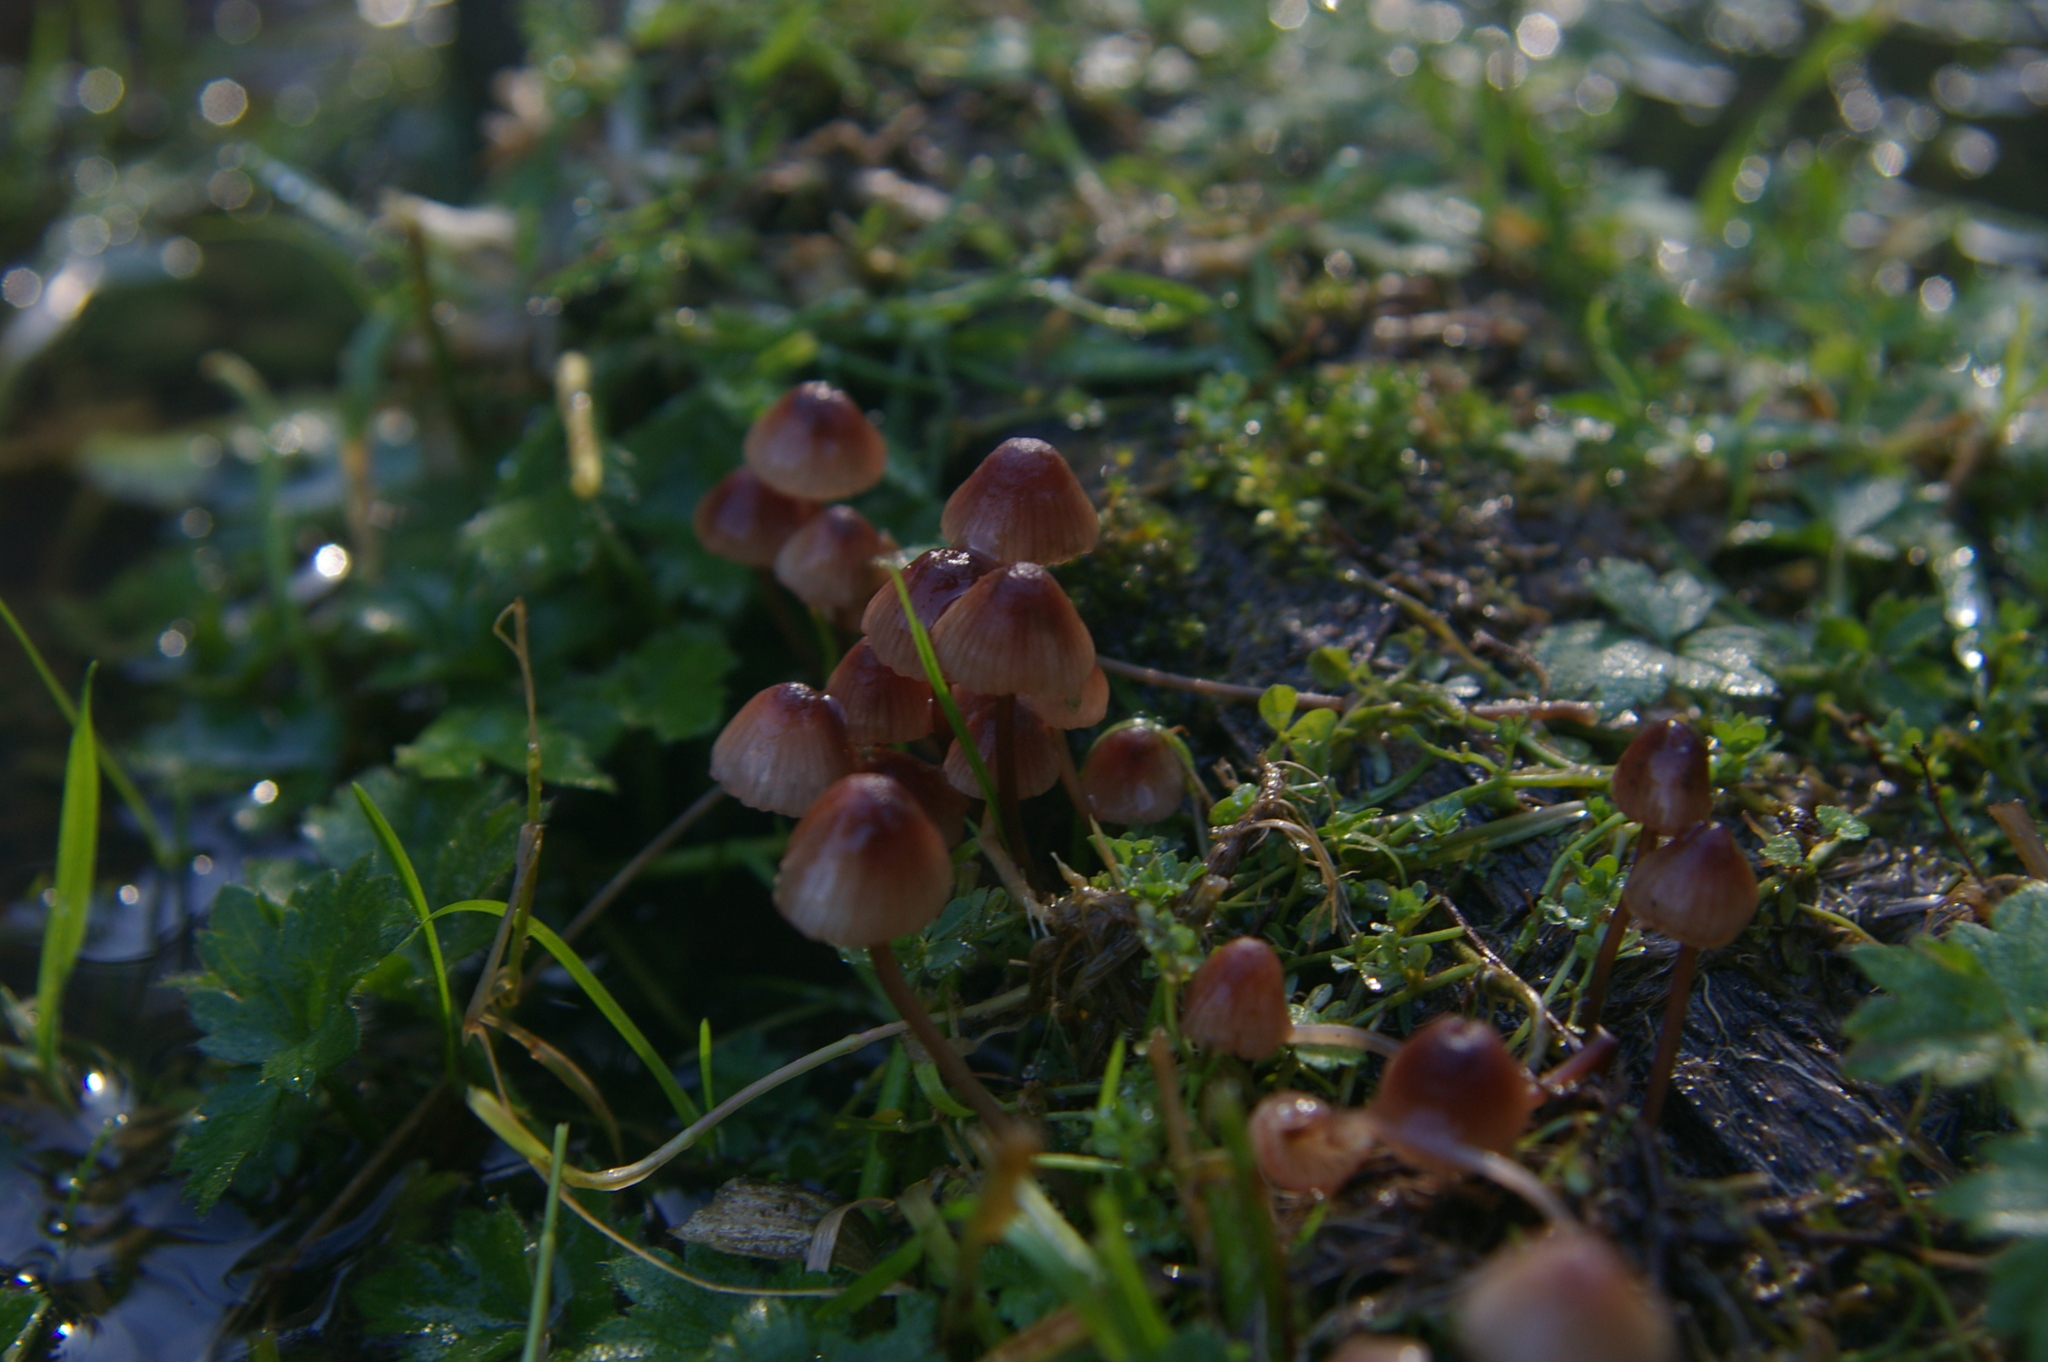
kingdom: Fungi
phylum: Basidiomycota
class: Agaricomycetes
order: Agaricales
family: Mycenaceae
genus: Mycena
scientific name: Mycena kuurkacea
